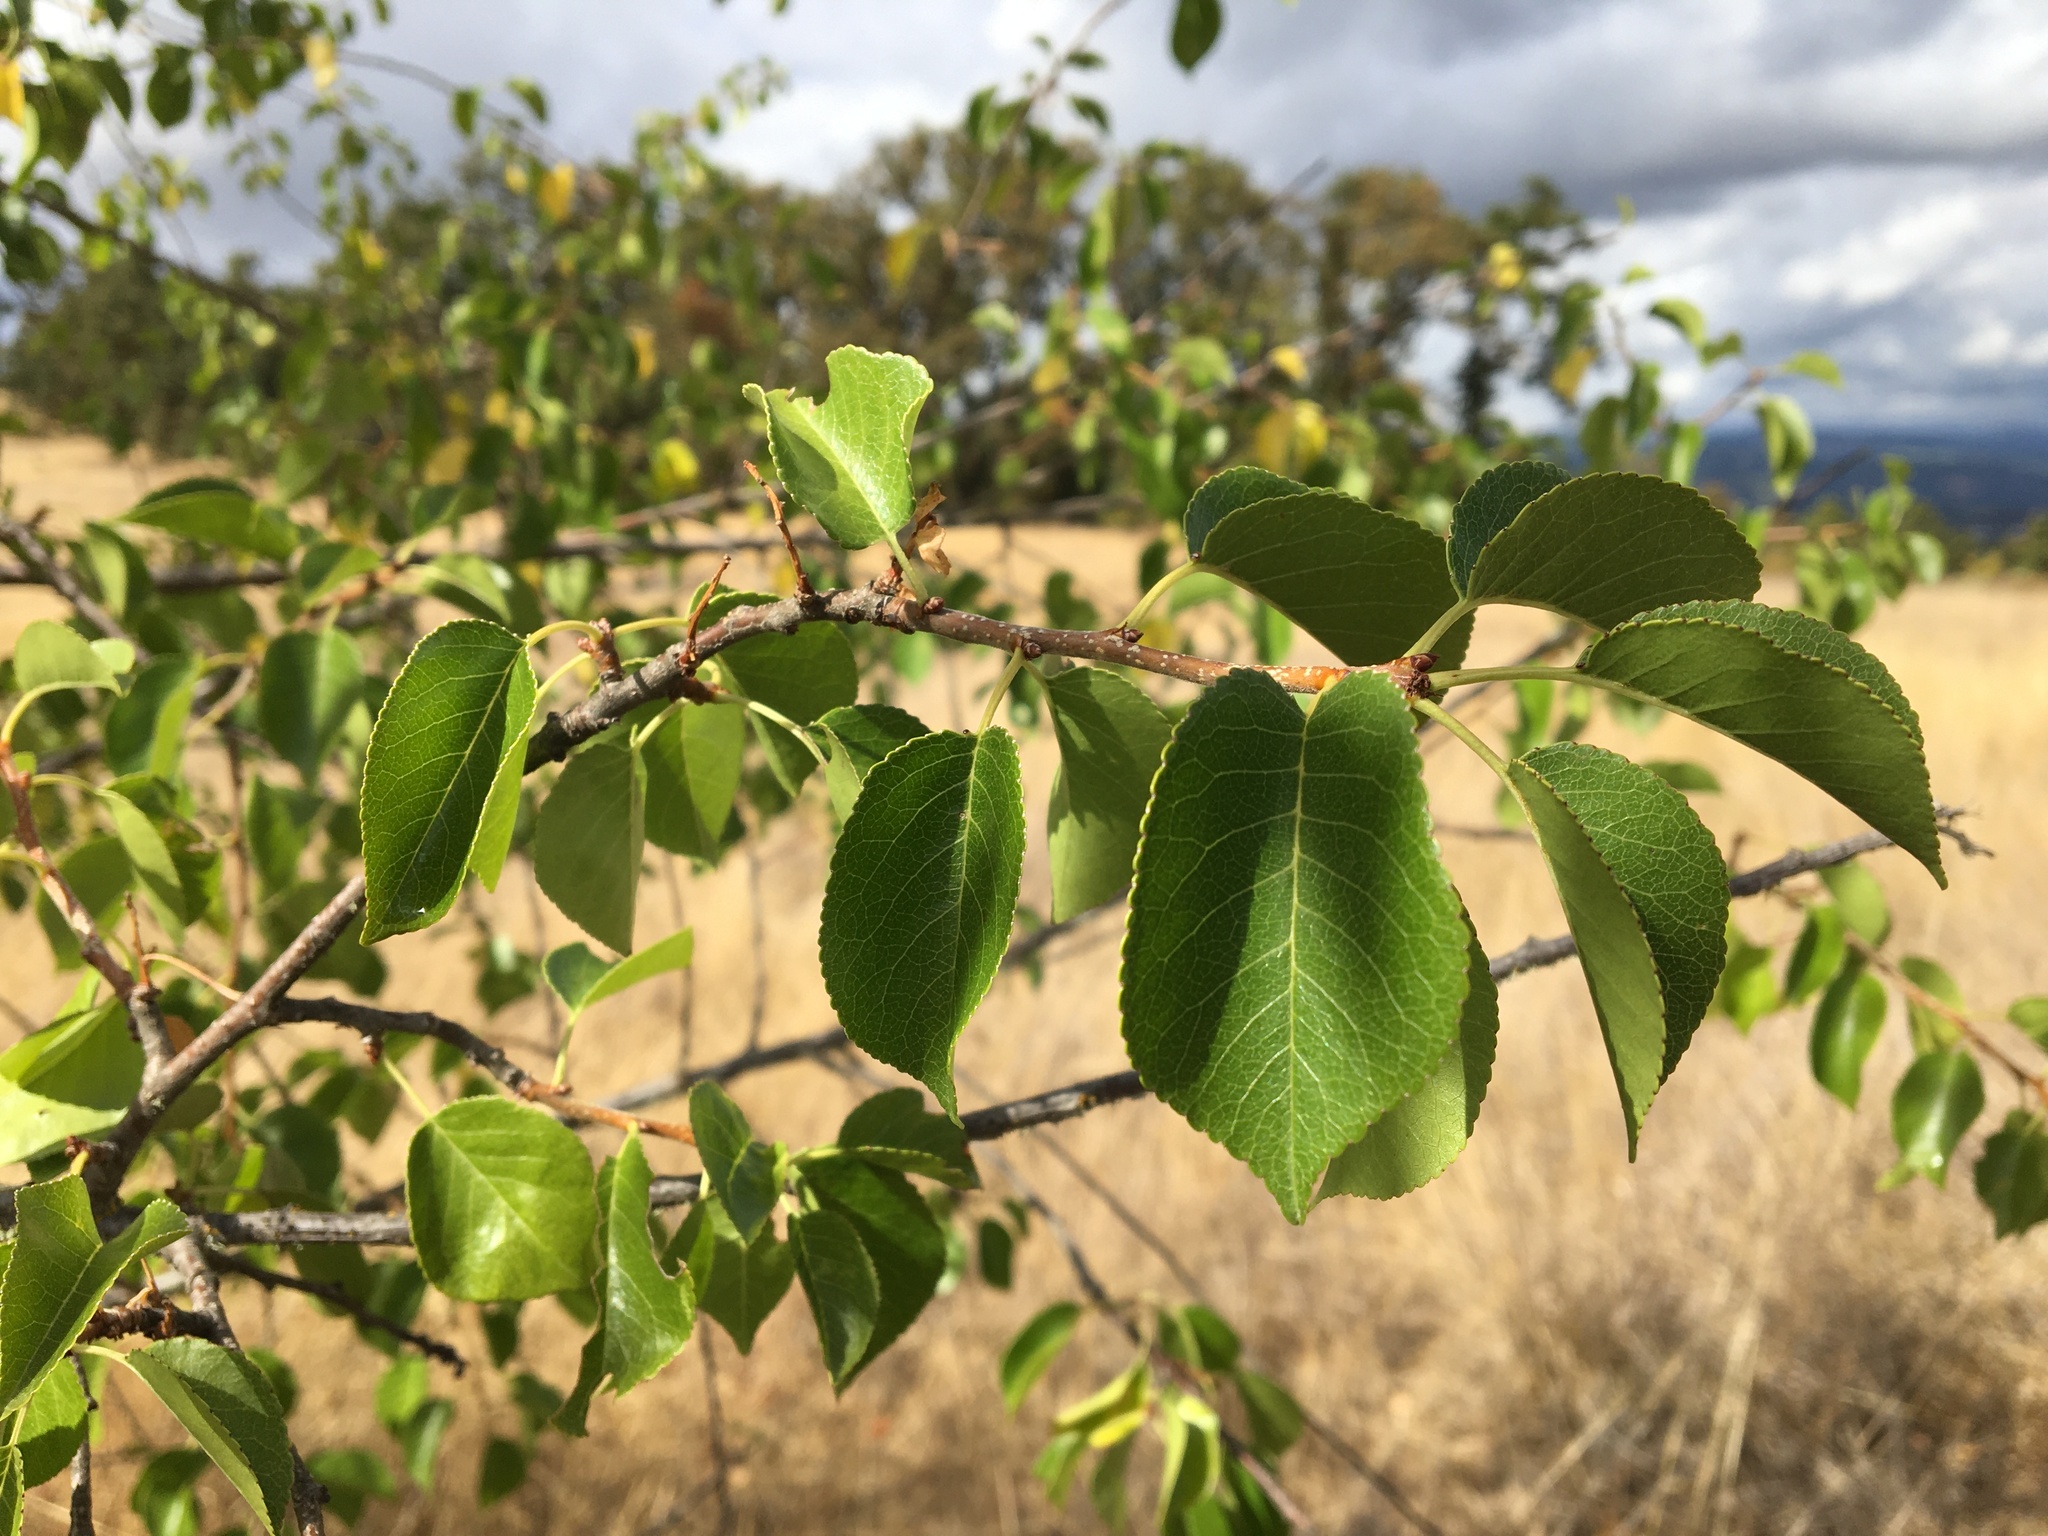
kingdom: Plantae
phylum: Tracheophyta
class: Magnoliopsida
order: Rosales
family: Rosaceae
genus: Prunus
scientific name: Prunus mahaleb
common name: Mahaleb cherry
